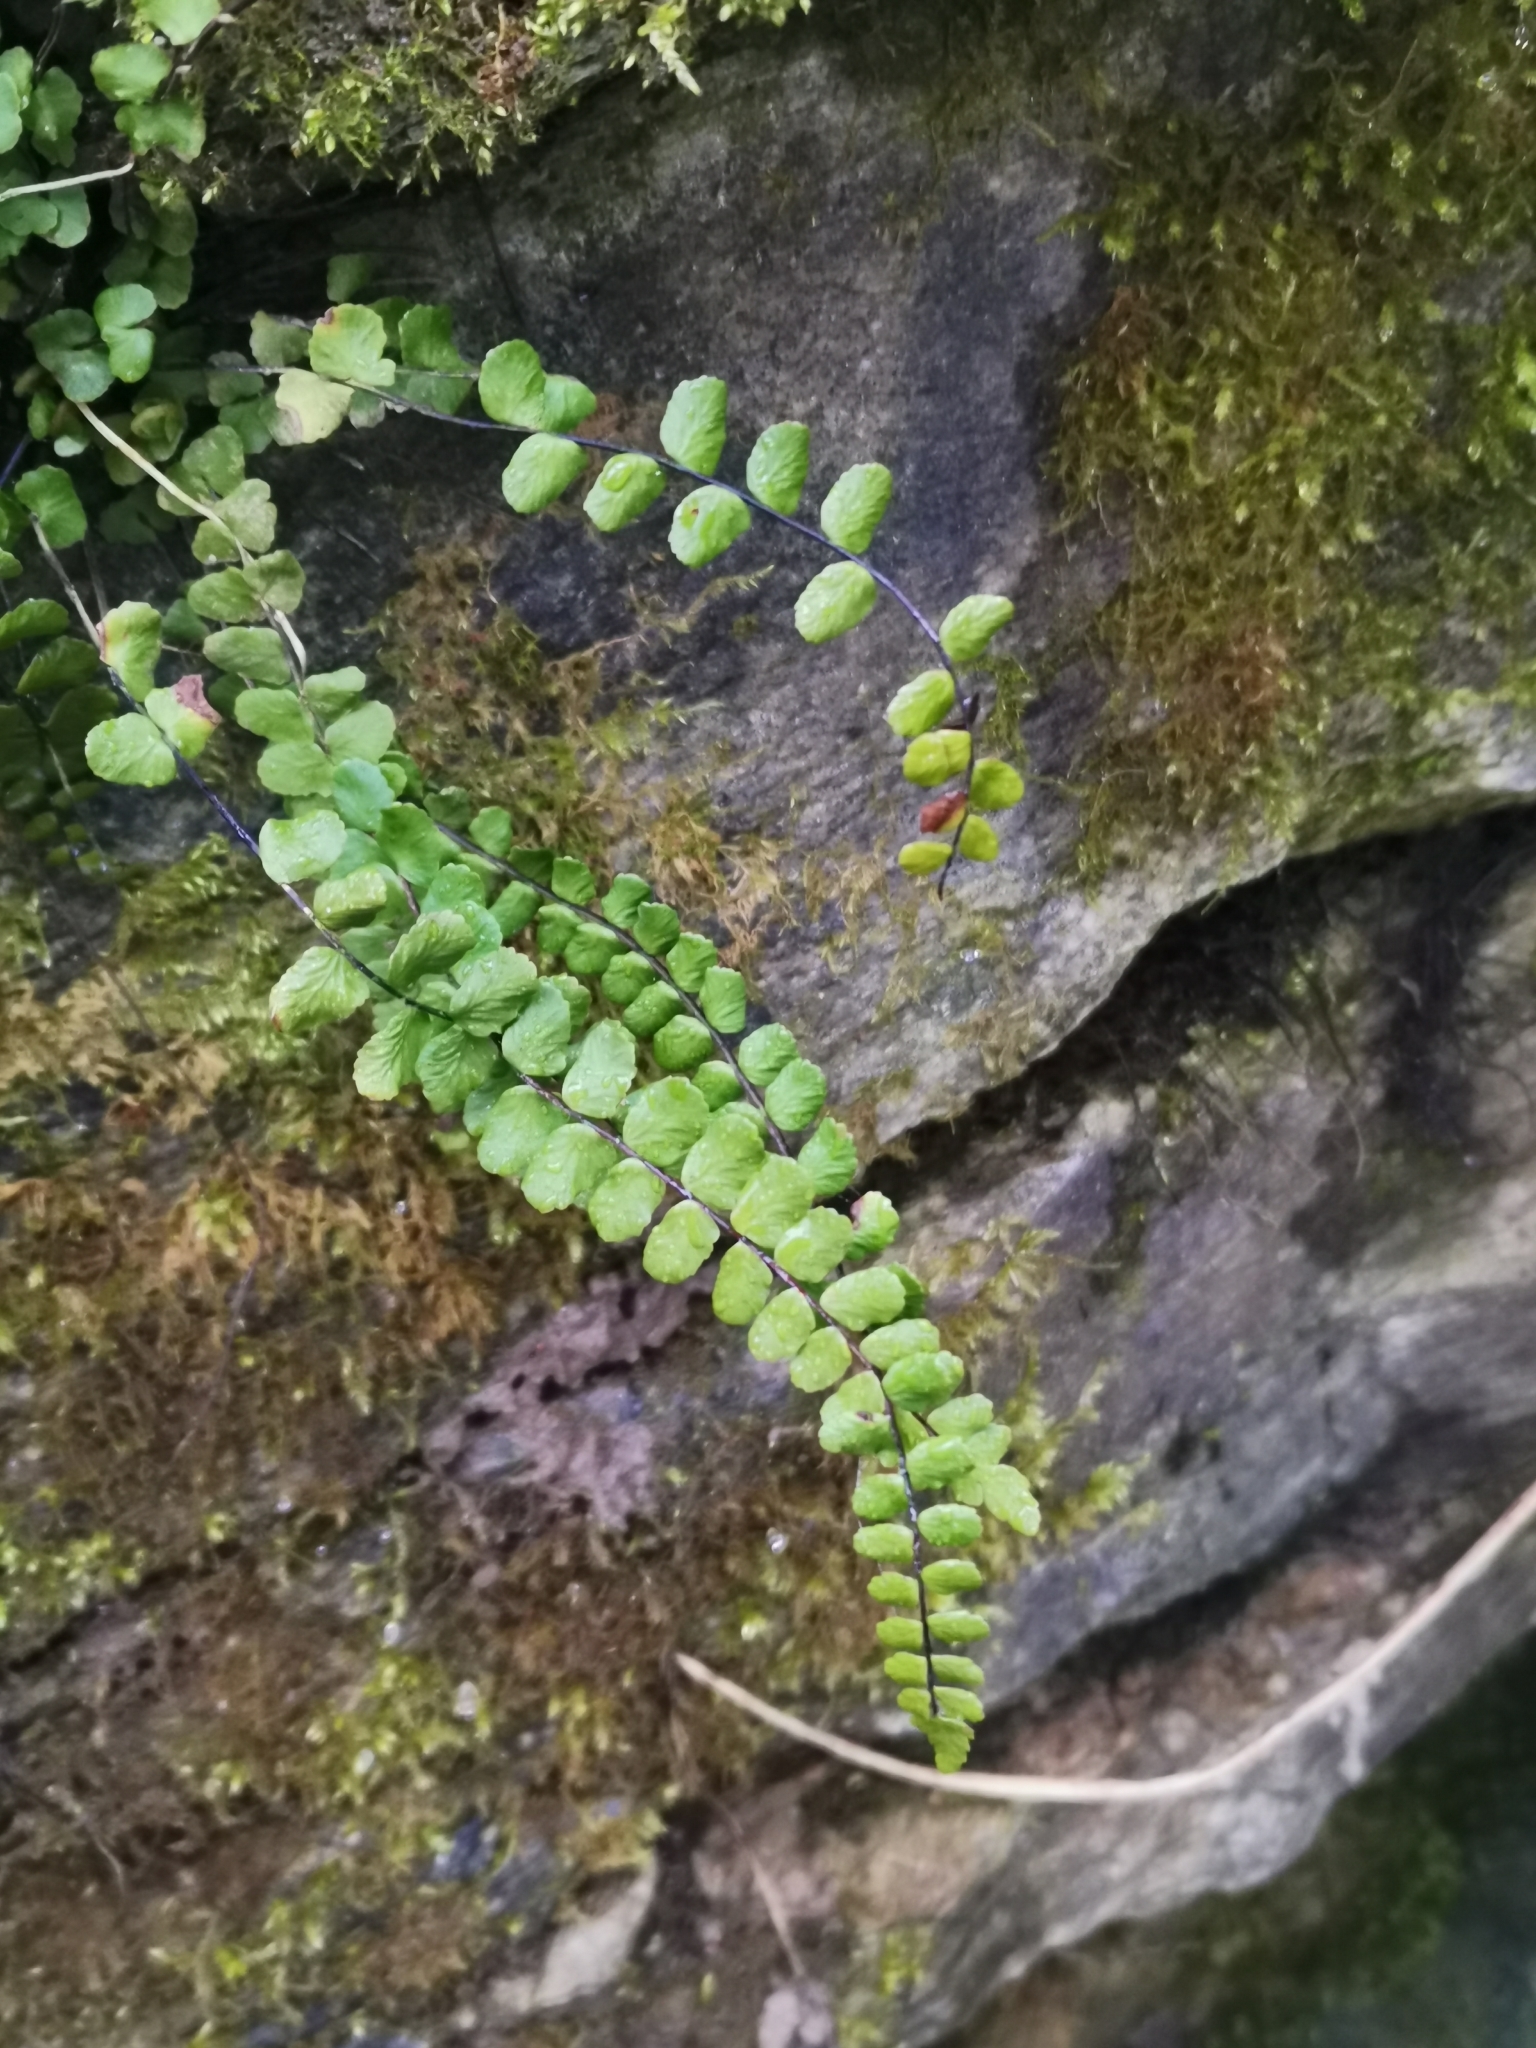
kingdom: Plantae
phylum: Tracheophyta
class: Polypodiopsida
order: Polypodiales
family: Aspleniaceae
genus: Asplenium
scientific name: Asplenium trichomanes
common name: Maidenhair spleenwort
